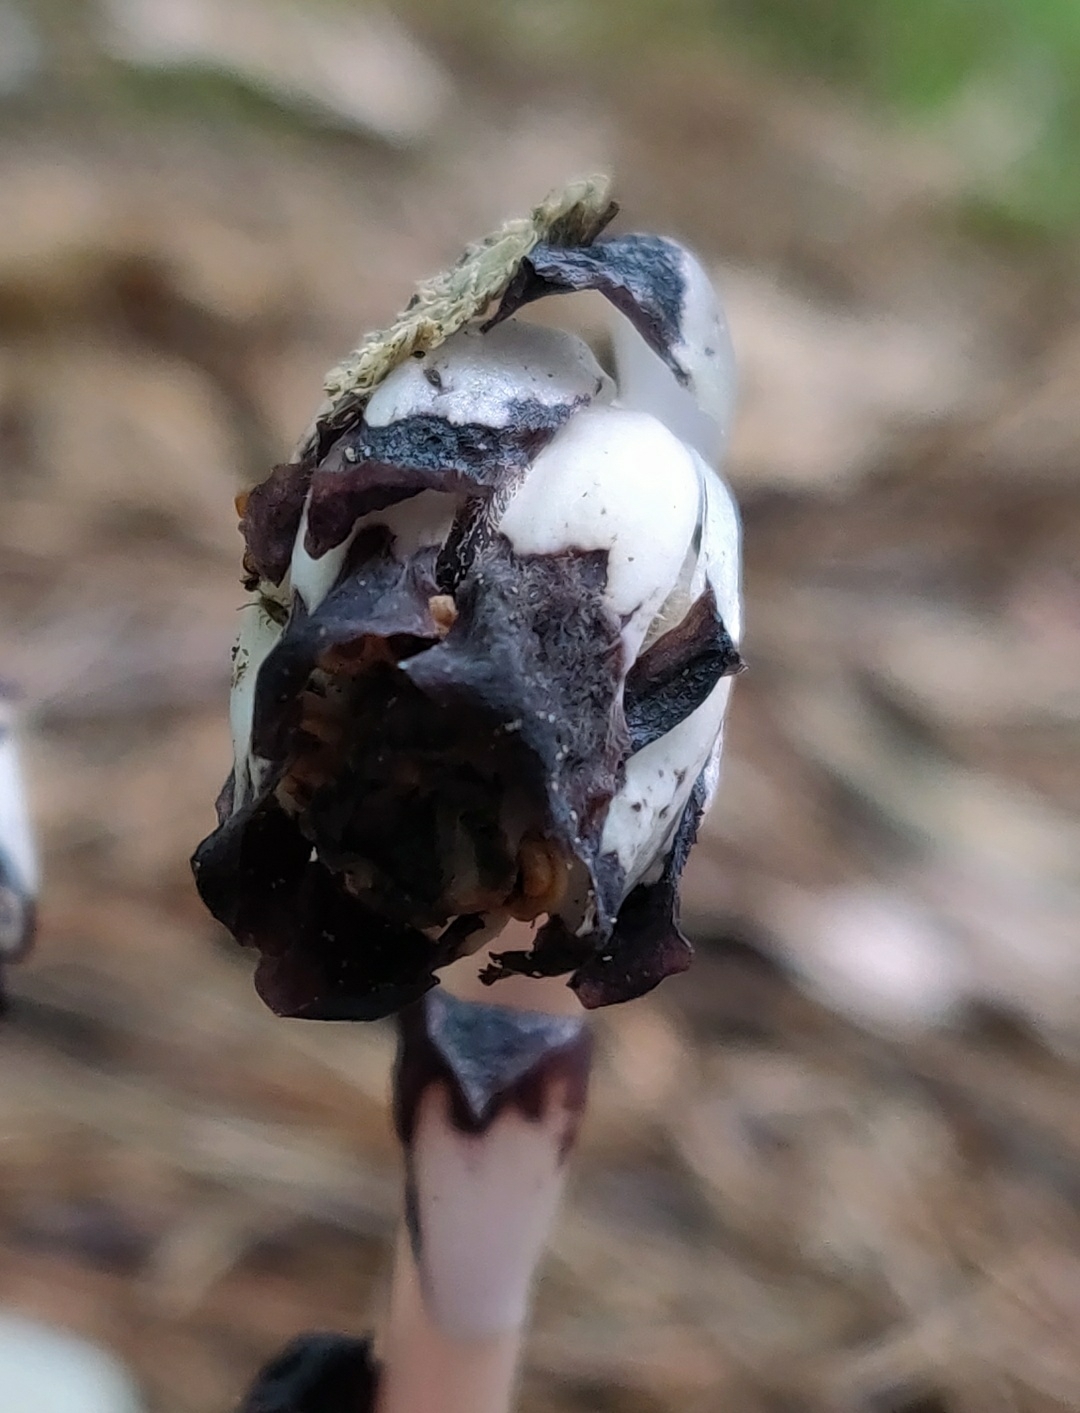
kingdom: Plantae
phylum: Tracheophyta
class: Magnoliopsida
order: Ericales
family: Ericaceae
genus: Monotropa
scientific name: Monotropa uniflora
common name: Convulsion root
